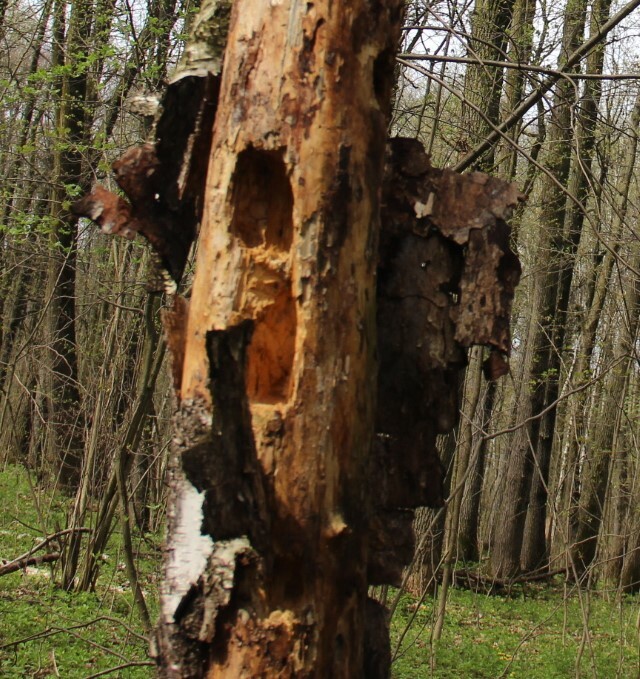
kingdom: Animalia
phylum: Chordata
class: Aves
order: Piciformes
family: Picidae
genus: Dryocopus
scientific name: Dryocopus martius
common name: Black woodpecker
